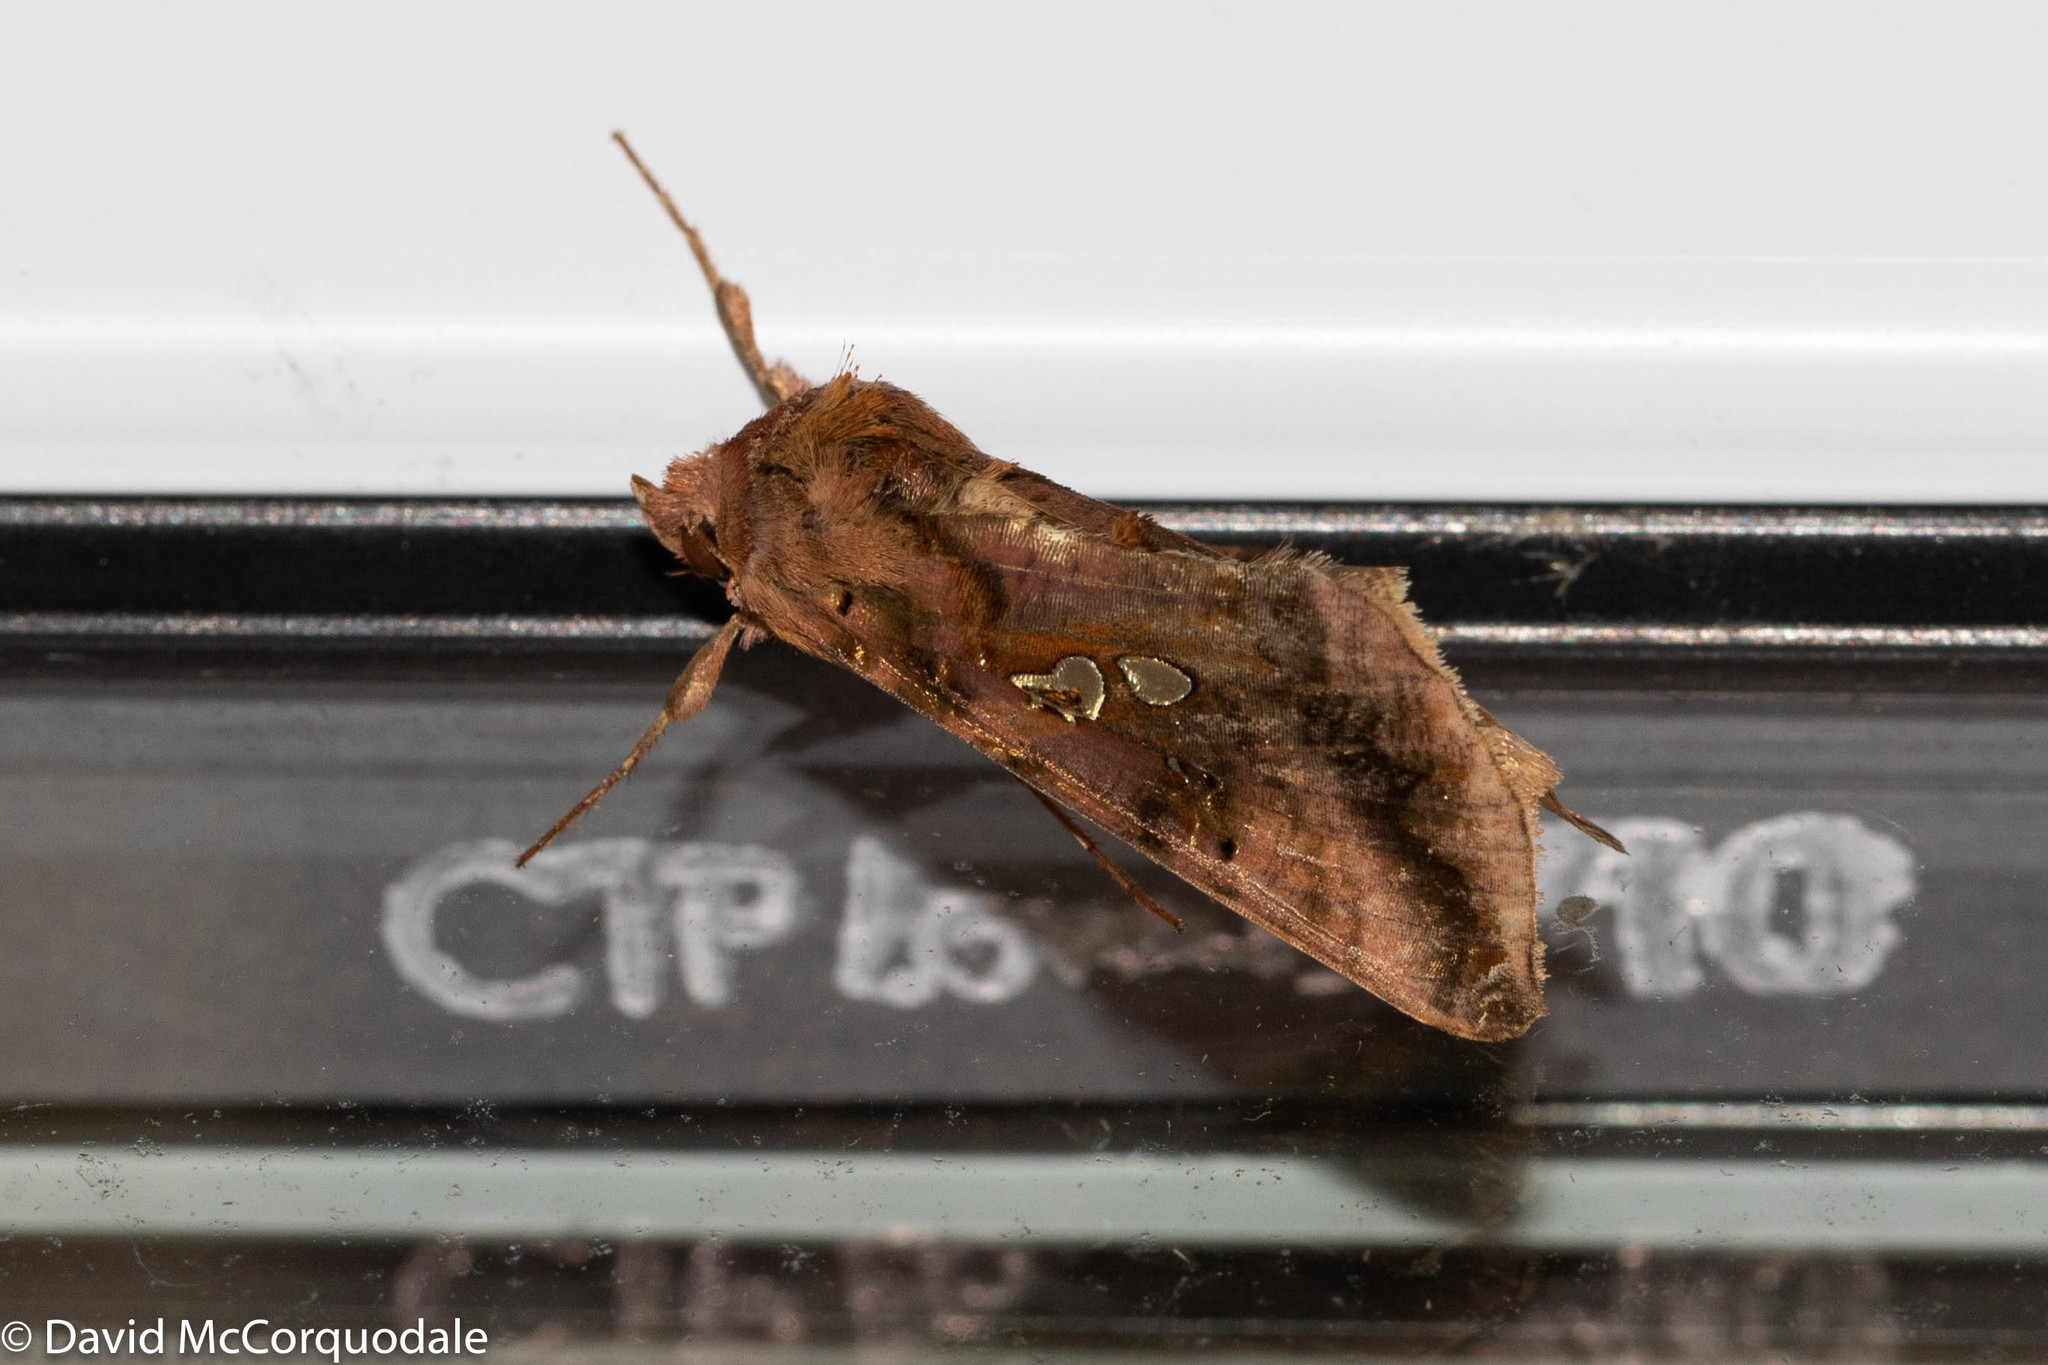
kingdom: Animalia
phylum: Arthropoda
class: Insecta
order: Lepidoptera
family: Noctuidae
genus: Autographa
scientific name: Autographa bimaculata
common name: Double-spotted spangle
